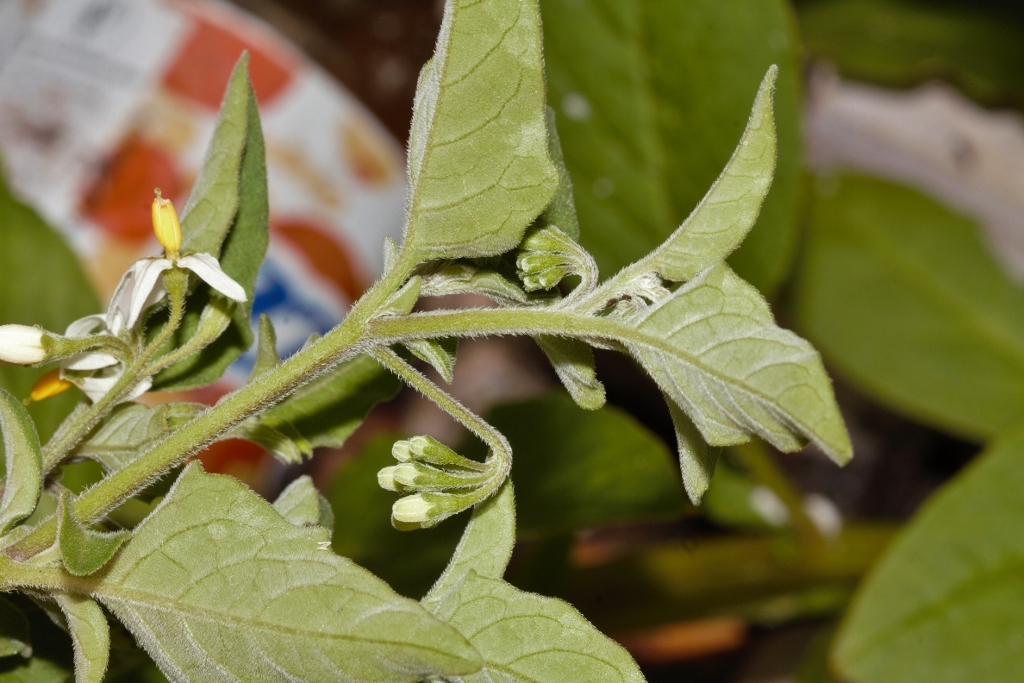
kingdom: Plantae
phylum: Tracheophyta
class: Magnoliopsida
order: Solanales
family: Solanaceae
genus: Solanum
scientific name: Solanum chenopodioides
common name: Tall nightshade
